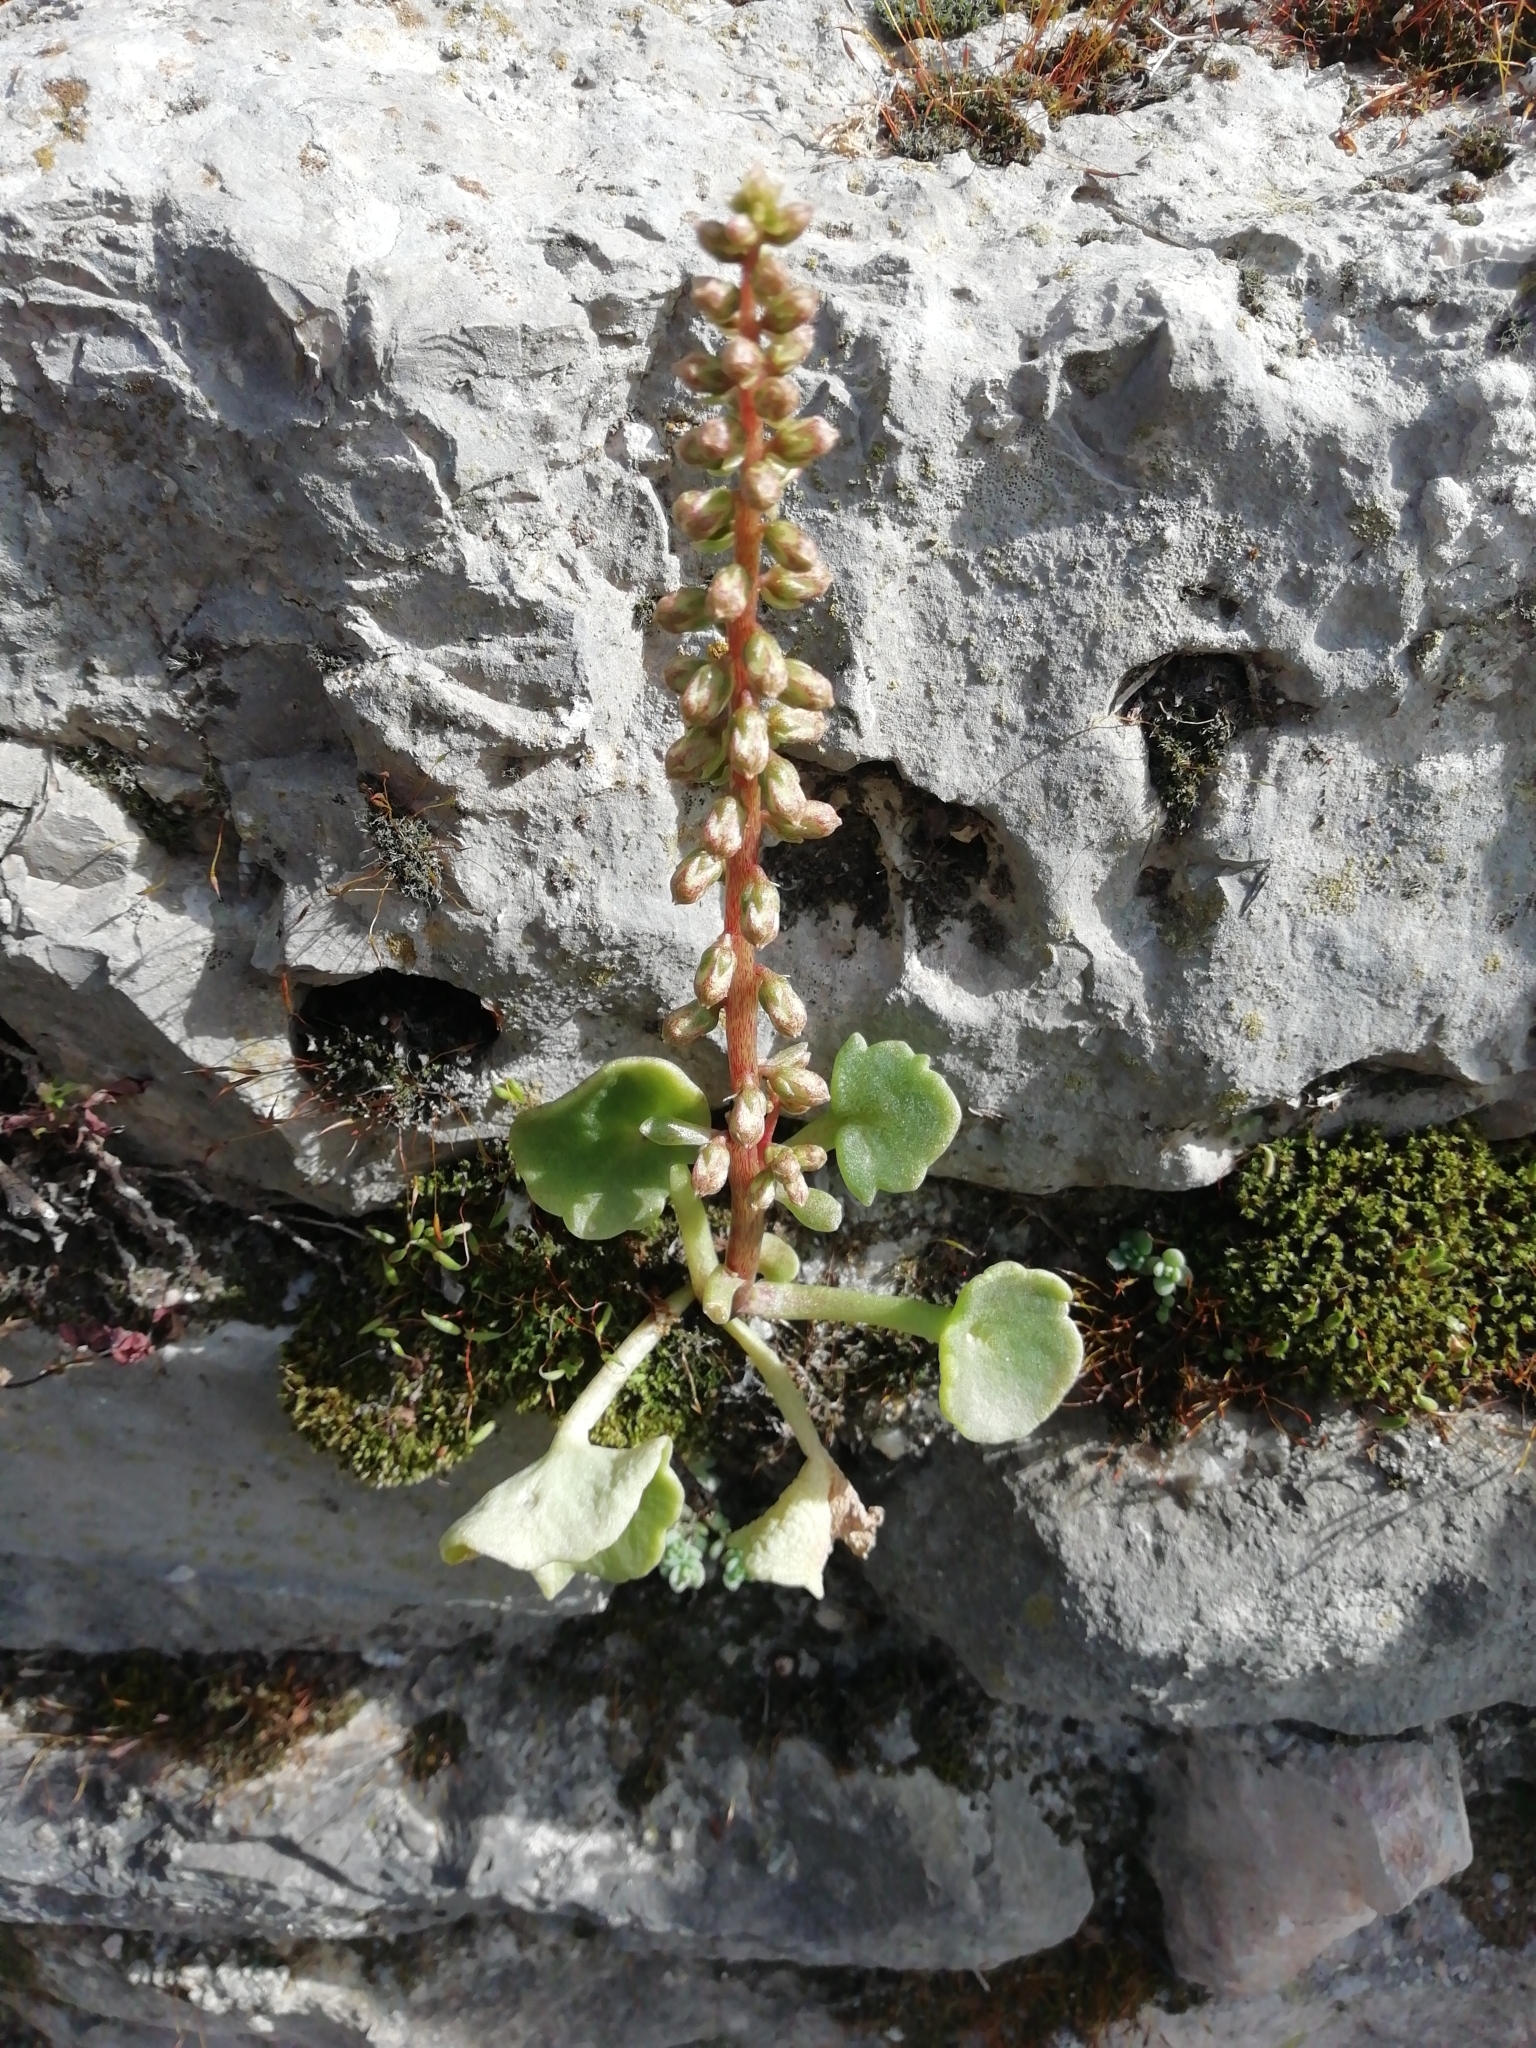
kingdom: Plantae
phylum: Tracheophyta
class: Magnoliopsida
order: Saxifragales
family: Crassulaceae
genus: Umbilicus
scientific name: Umbilicus rupestris
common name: Navelwort
